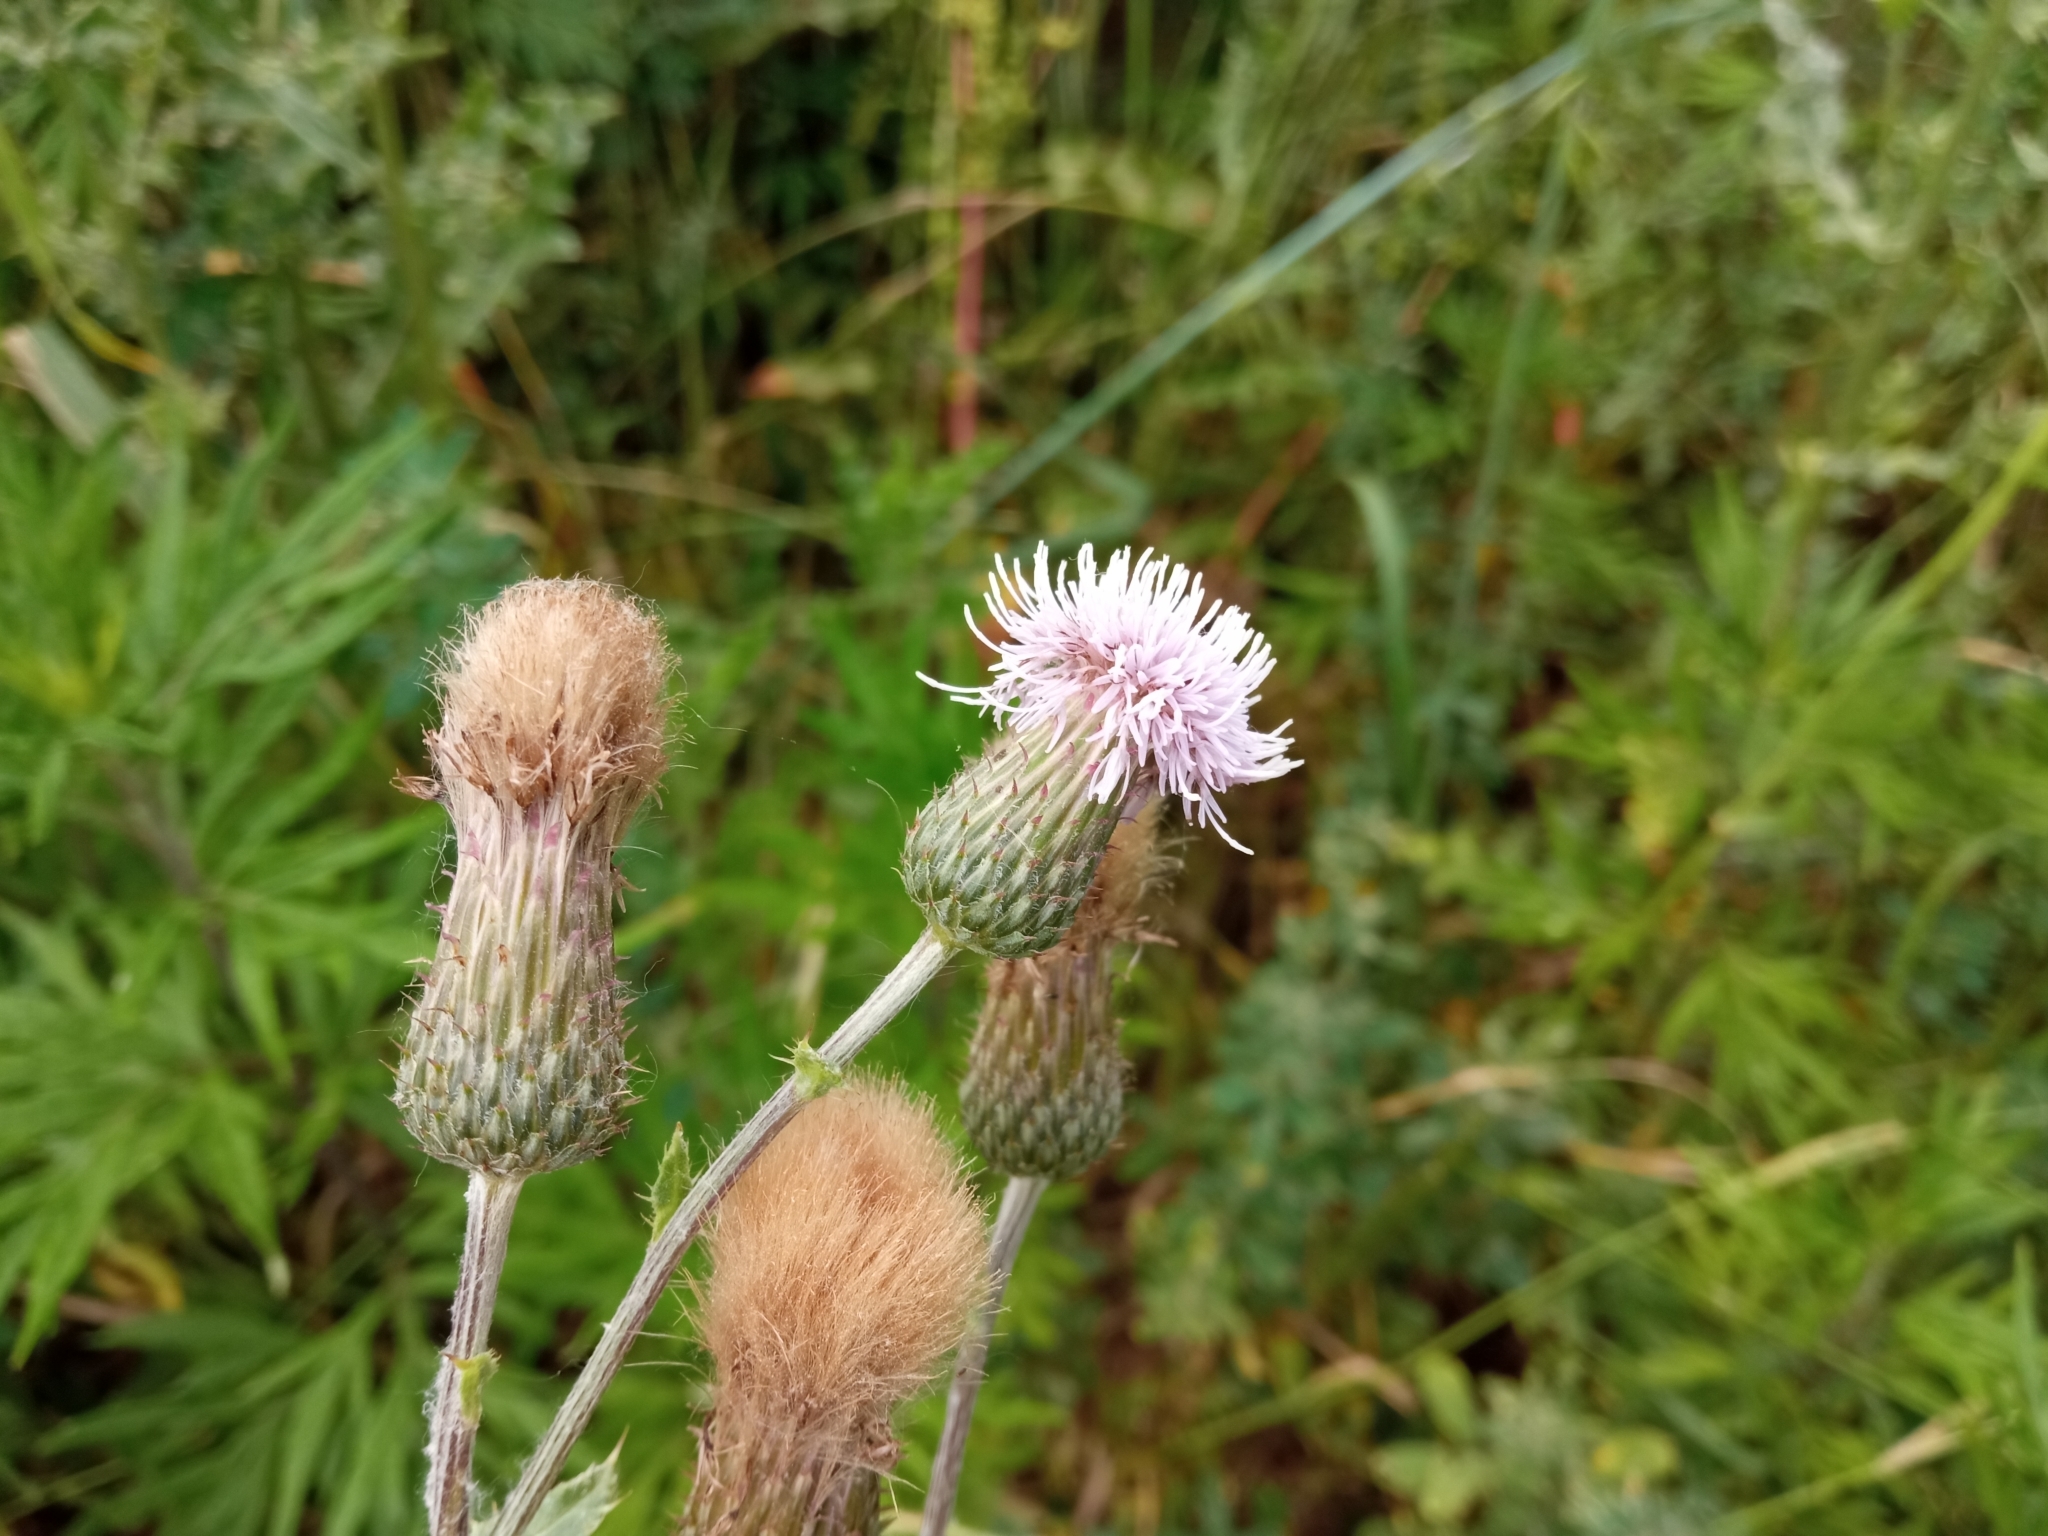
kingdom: Plantae
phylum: Tracheophyta
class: Magnoliopsida
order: Asterales
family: Asteraceae
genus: Cirsium
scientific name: Cirsium arvense
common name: Creeping thistle
